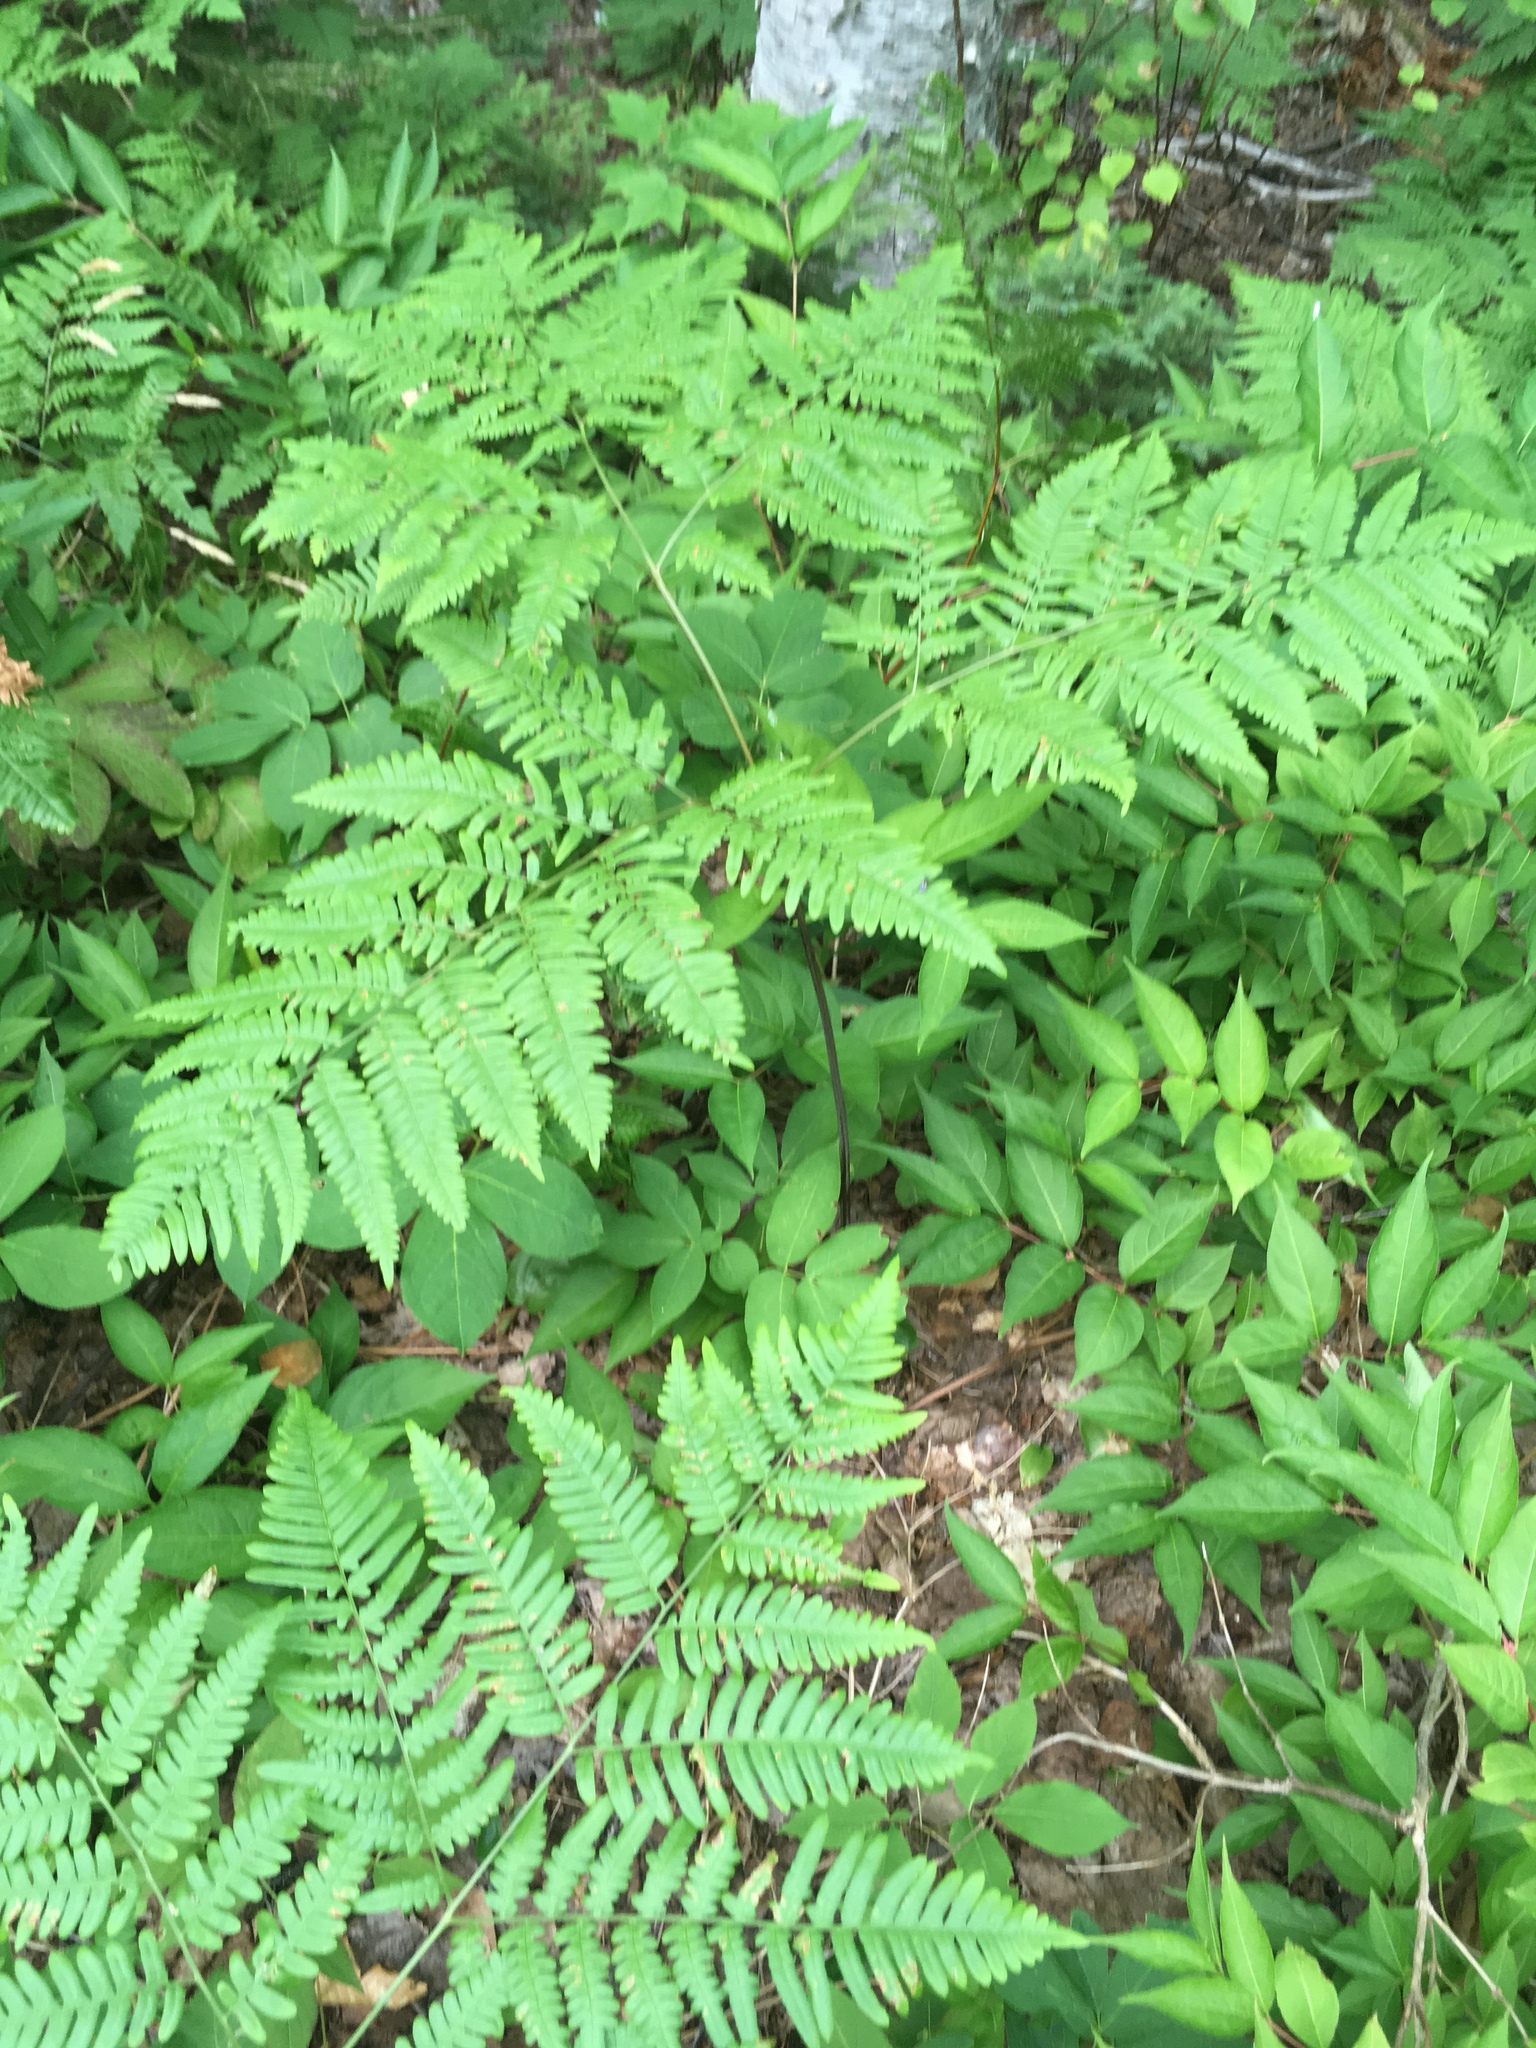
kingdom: Plantae
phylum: Tracheophyta
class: Polypodiopsida
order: Polypodiales
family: Dennstaedtiaceae
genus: Pteridium
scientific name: Pteridium aquilinum
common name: Bracken
